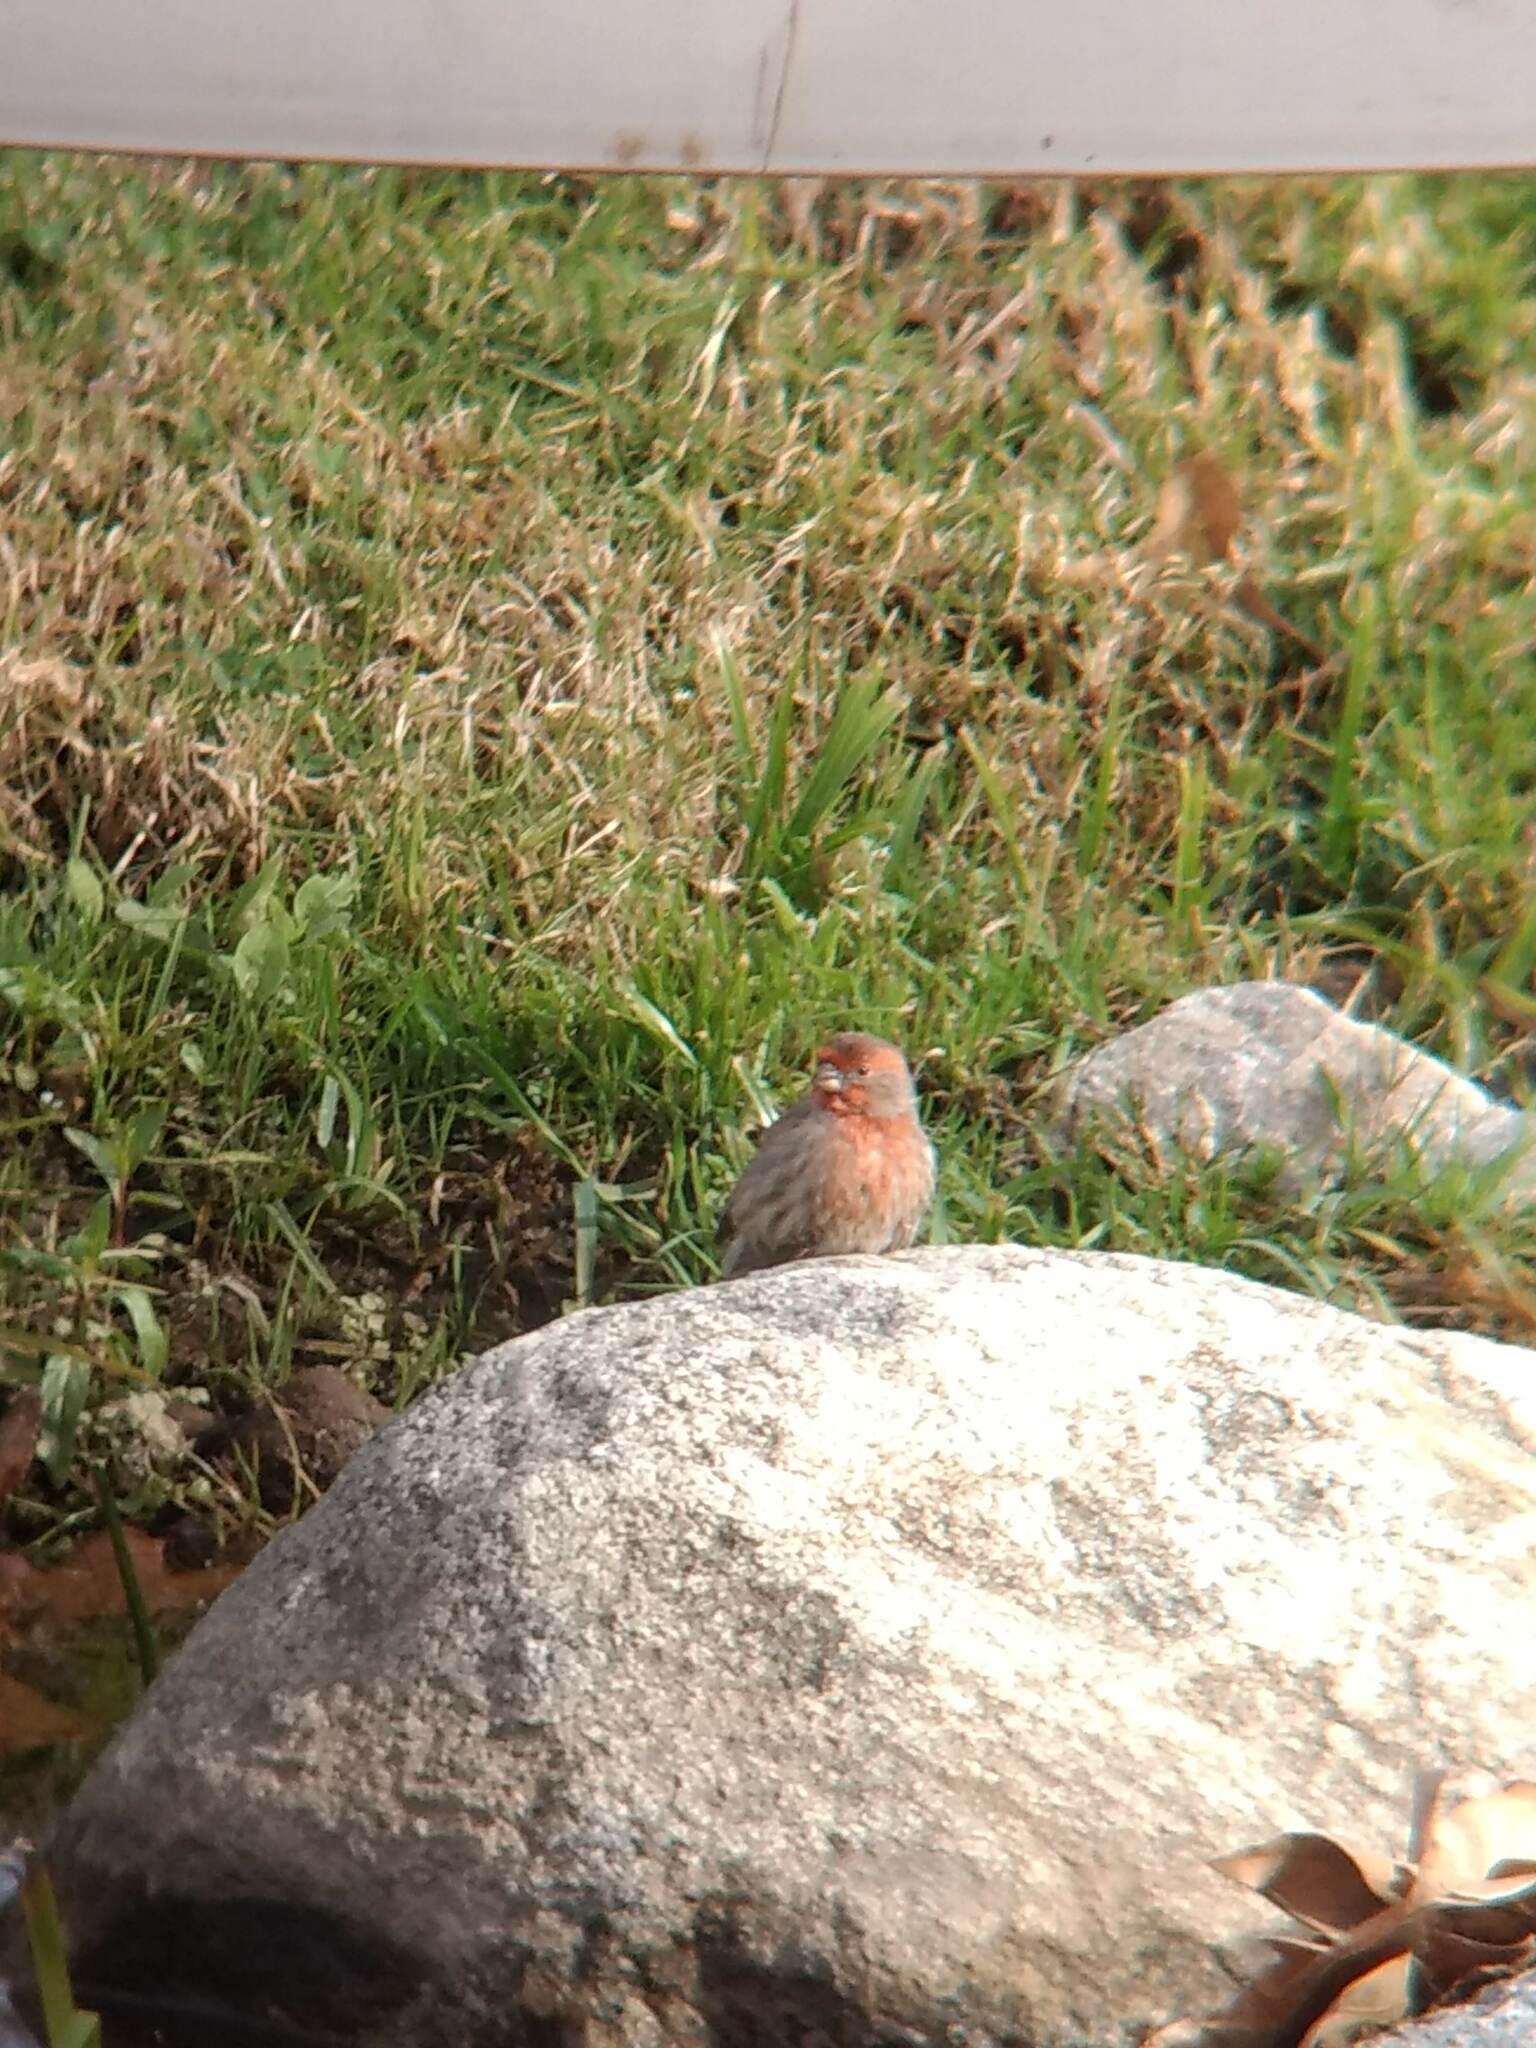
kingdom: Animalia
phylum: Chordata
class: Aves
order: Passeriformes
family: Fringillidae
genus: Haemorhous
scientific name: Haemorhous mexicanus
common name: House finch
